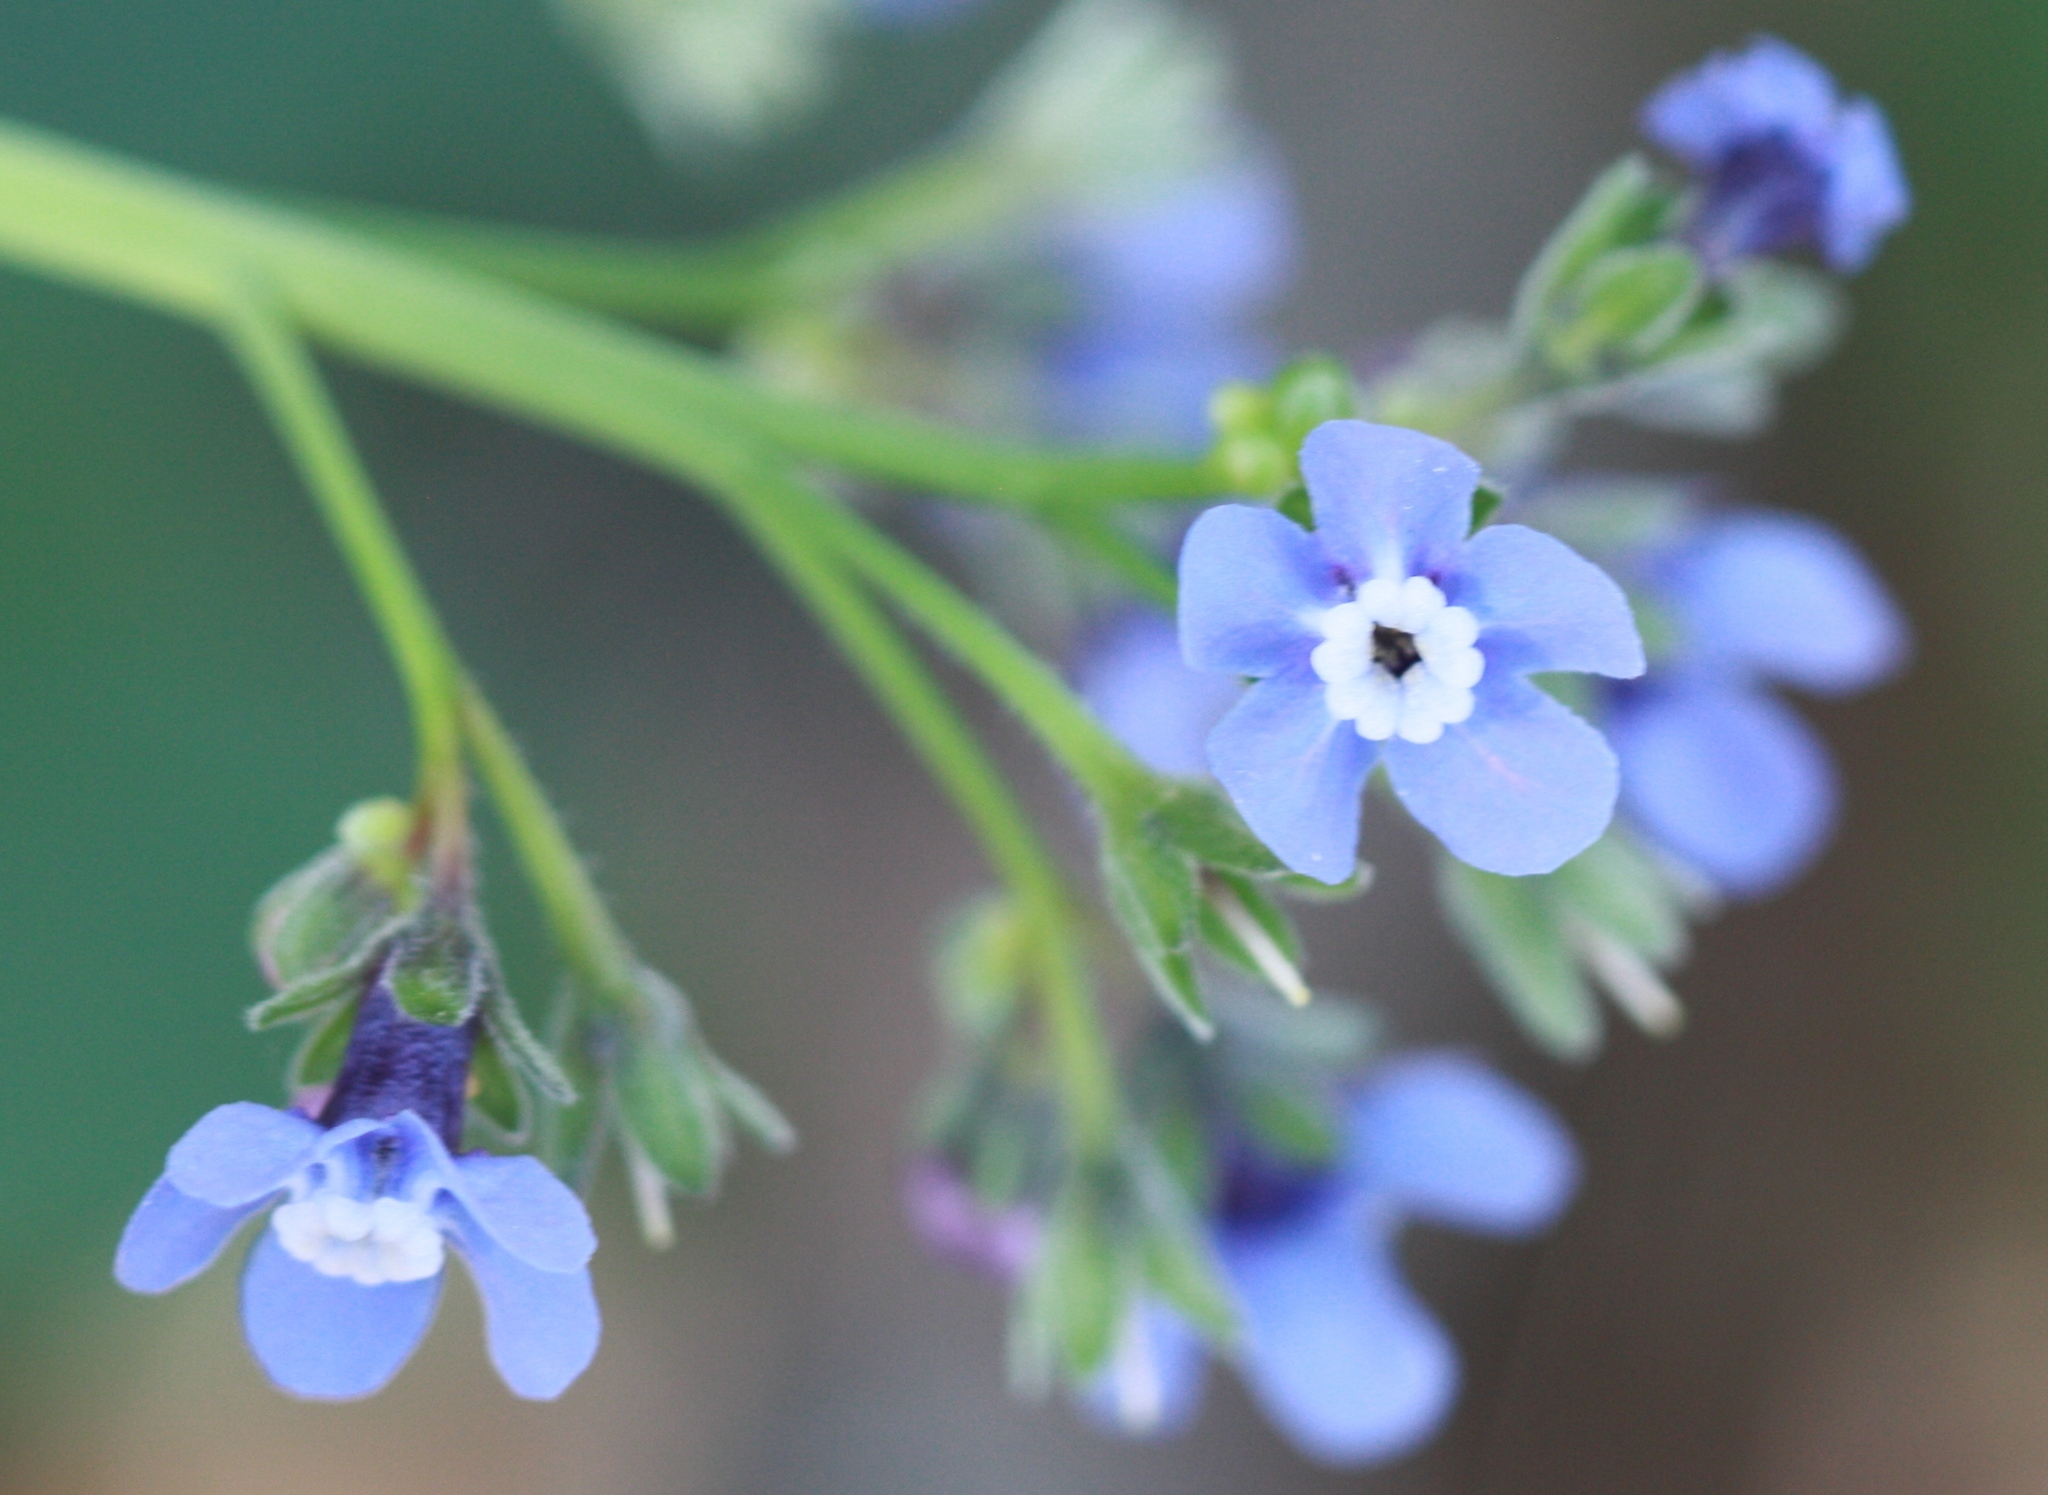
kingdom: Plantae
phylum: Tracheophyta
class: Magnoliopsida
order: Boraginales
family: Boraginaceae
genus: Adelinia
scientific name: Adelinia grande
